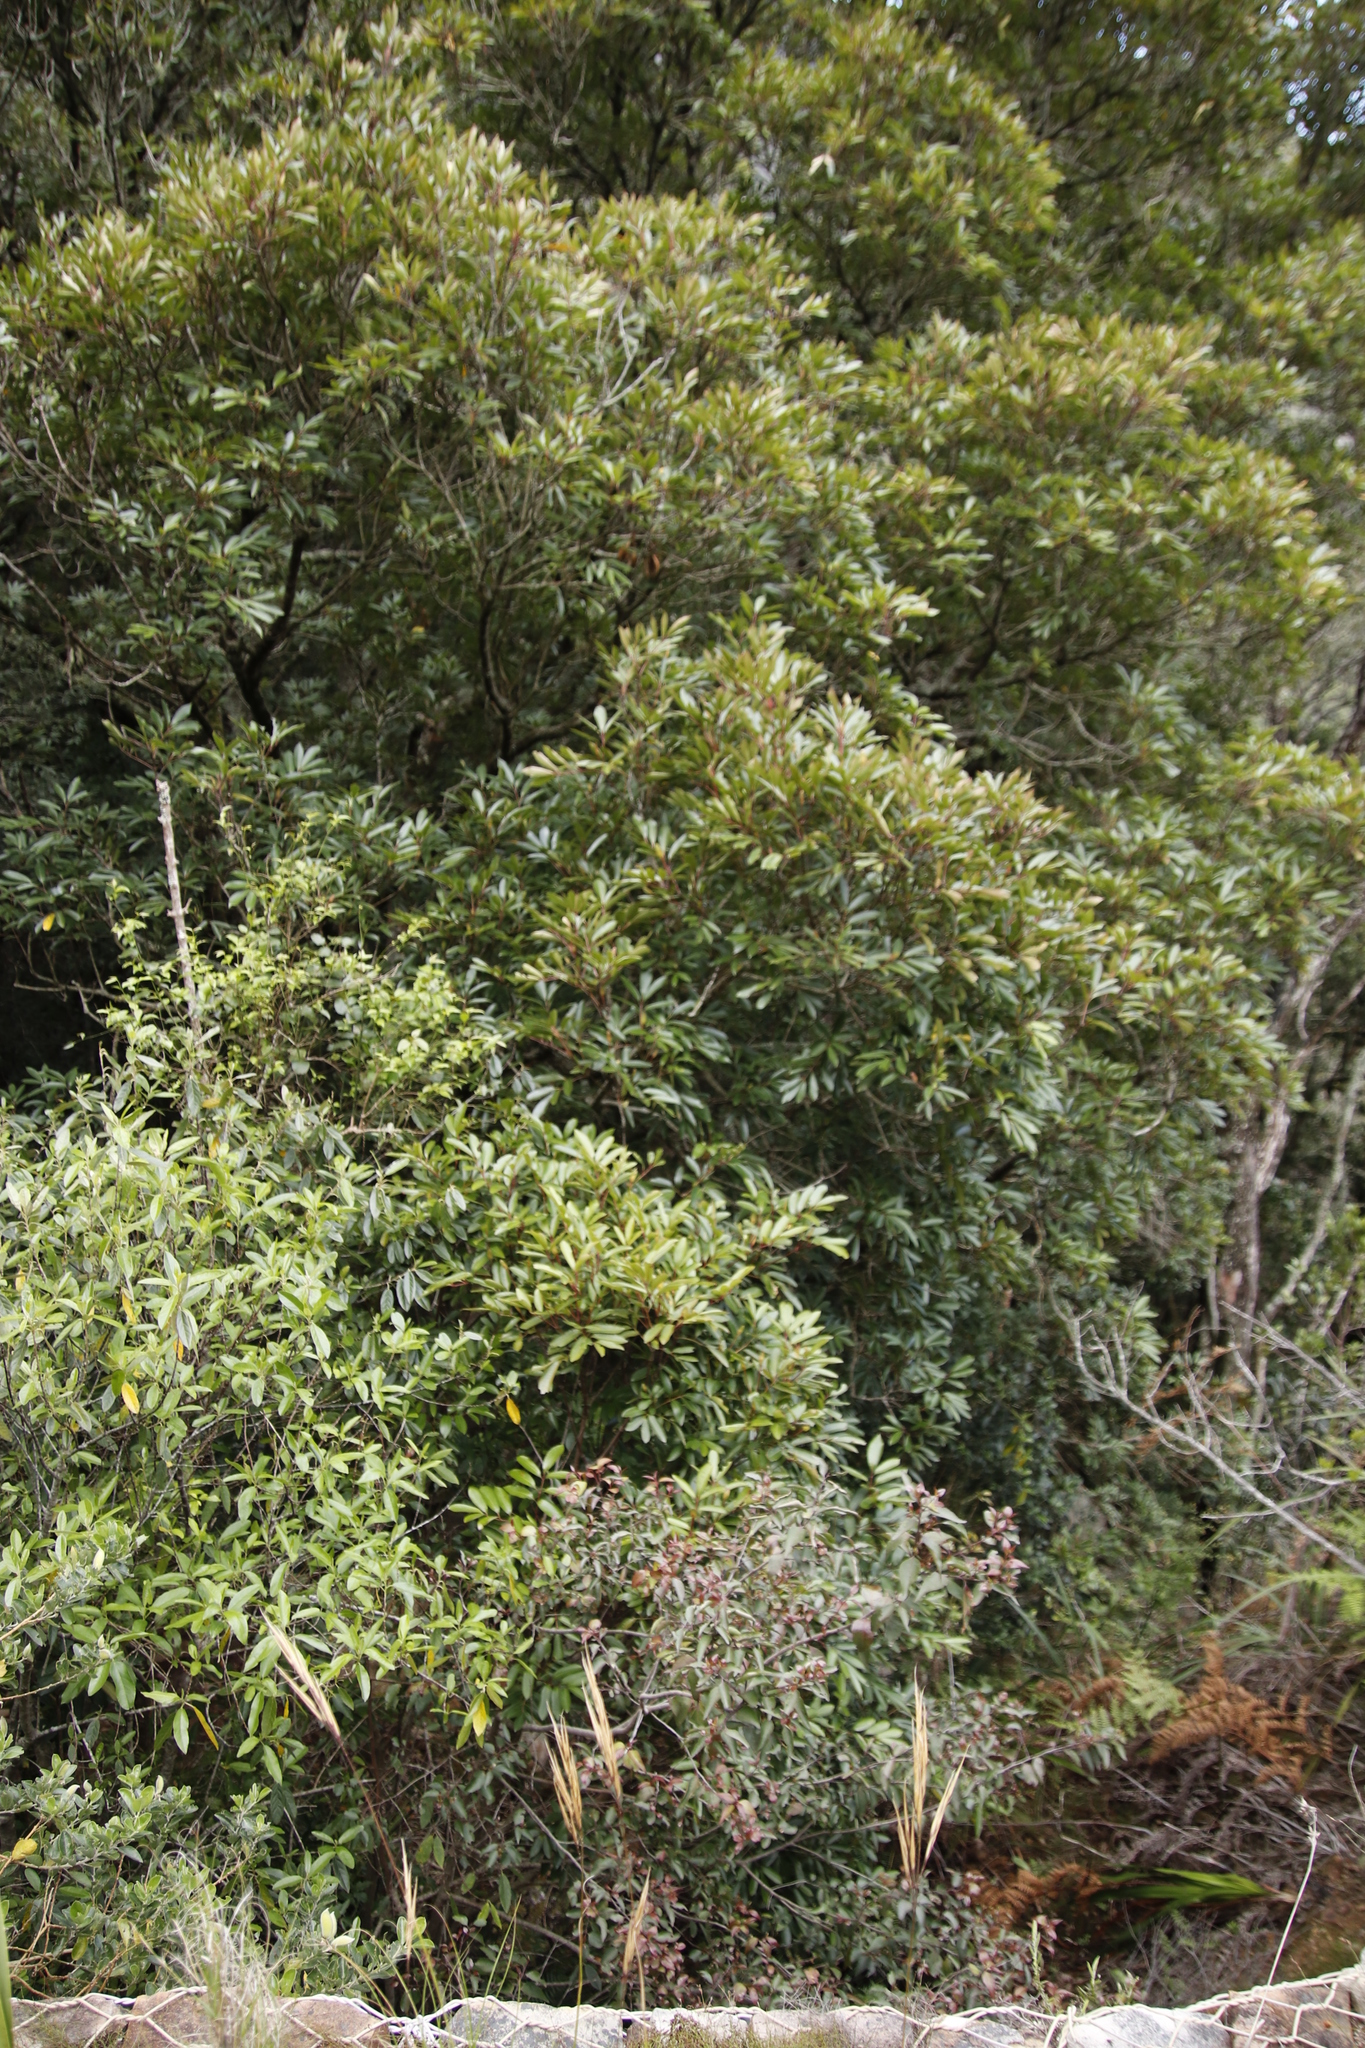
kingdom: Plantae
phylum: Tracheophyta
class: Magnoliopsida
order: Oxalidales
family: Cunoniaceae
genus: Cunonia
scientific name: Cunonia capensis
